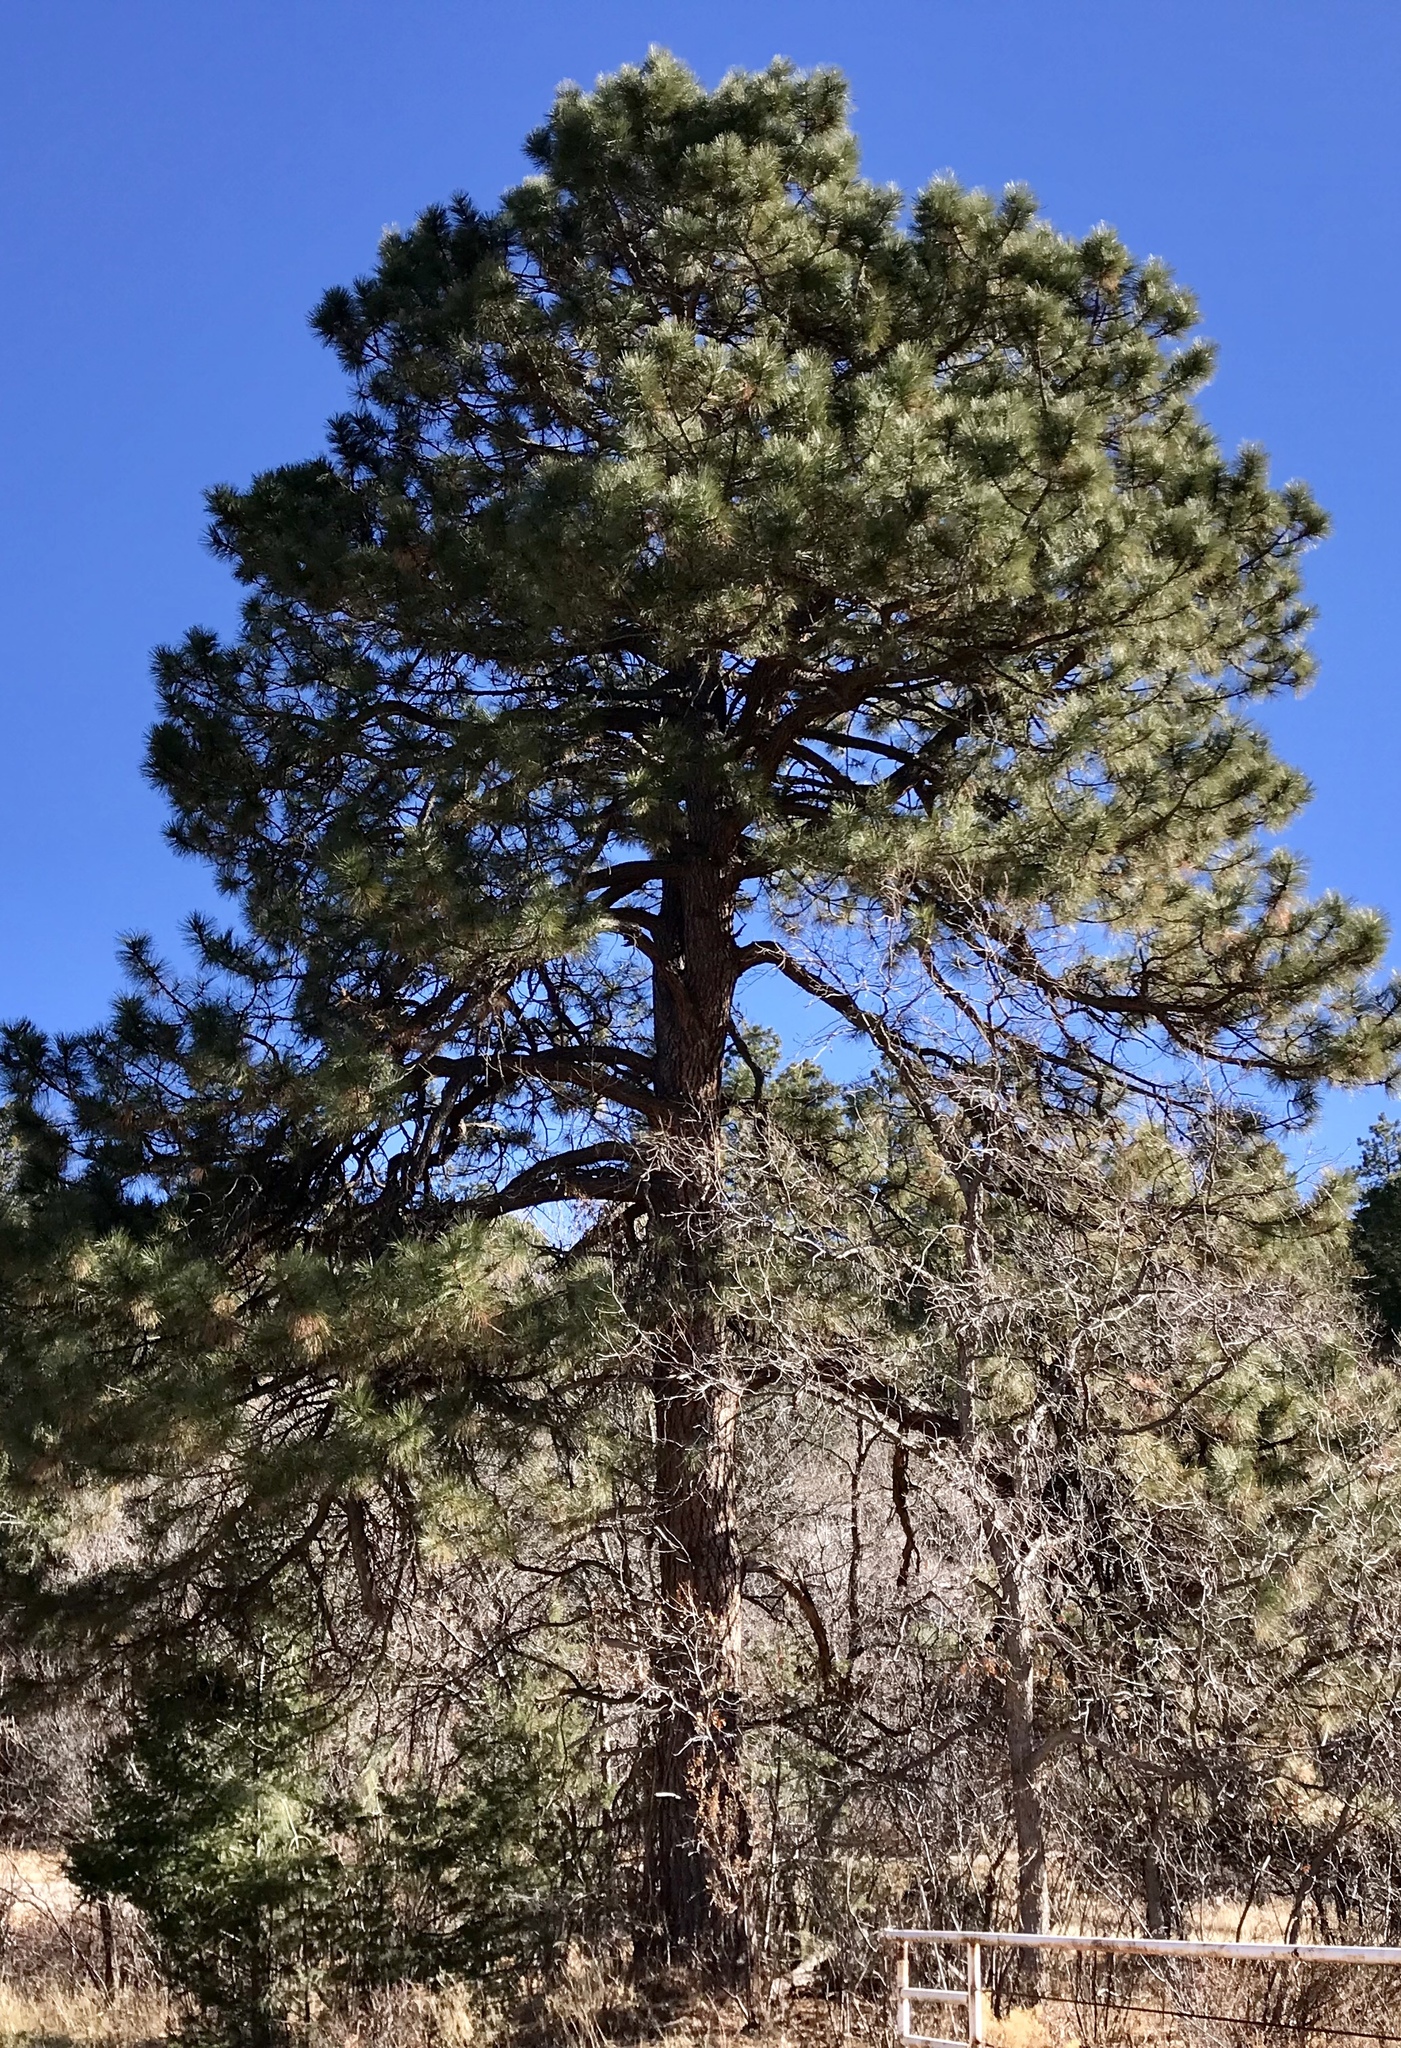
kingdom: Plantae
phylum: Tracheophyta
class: Pinopsida
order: Pinales
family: Pinaceae
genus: Pinus
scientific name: Pinus ponderosa
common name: Western yellow-pine
